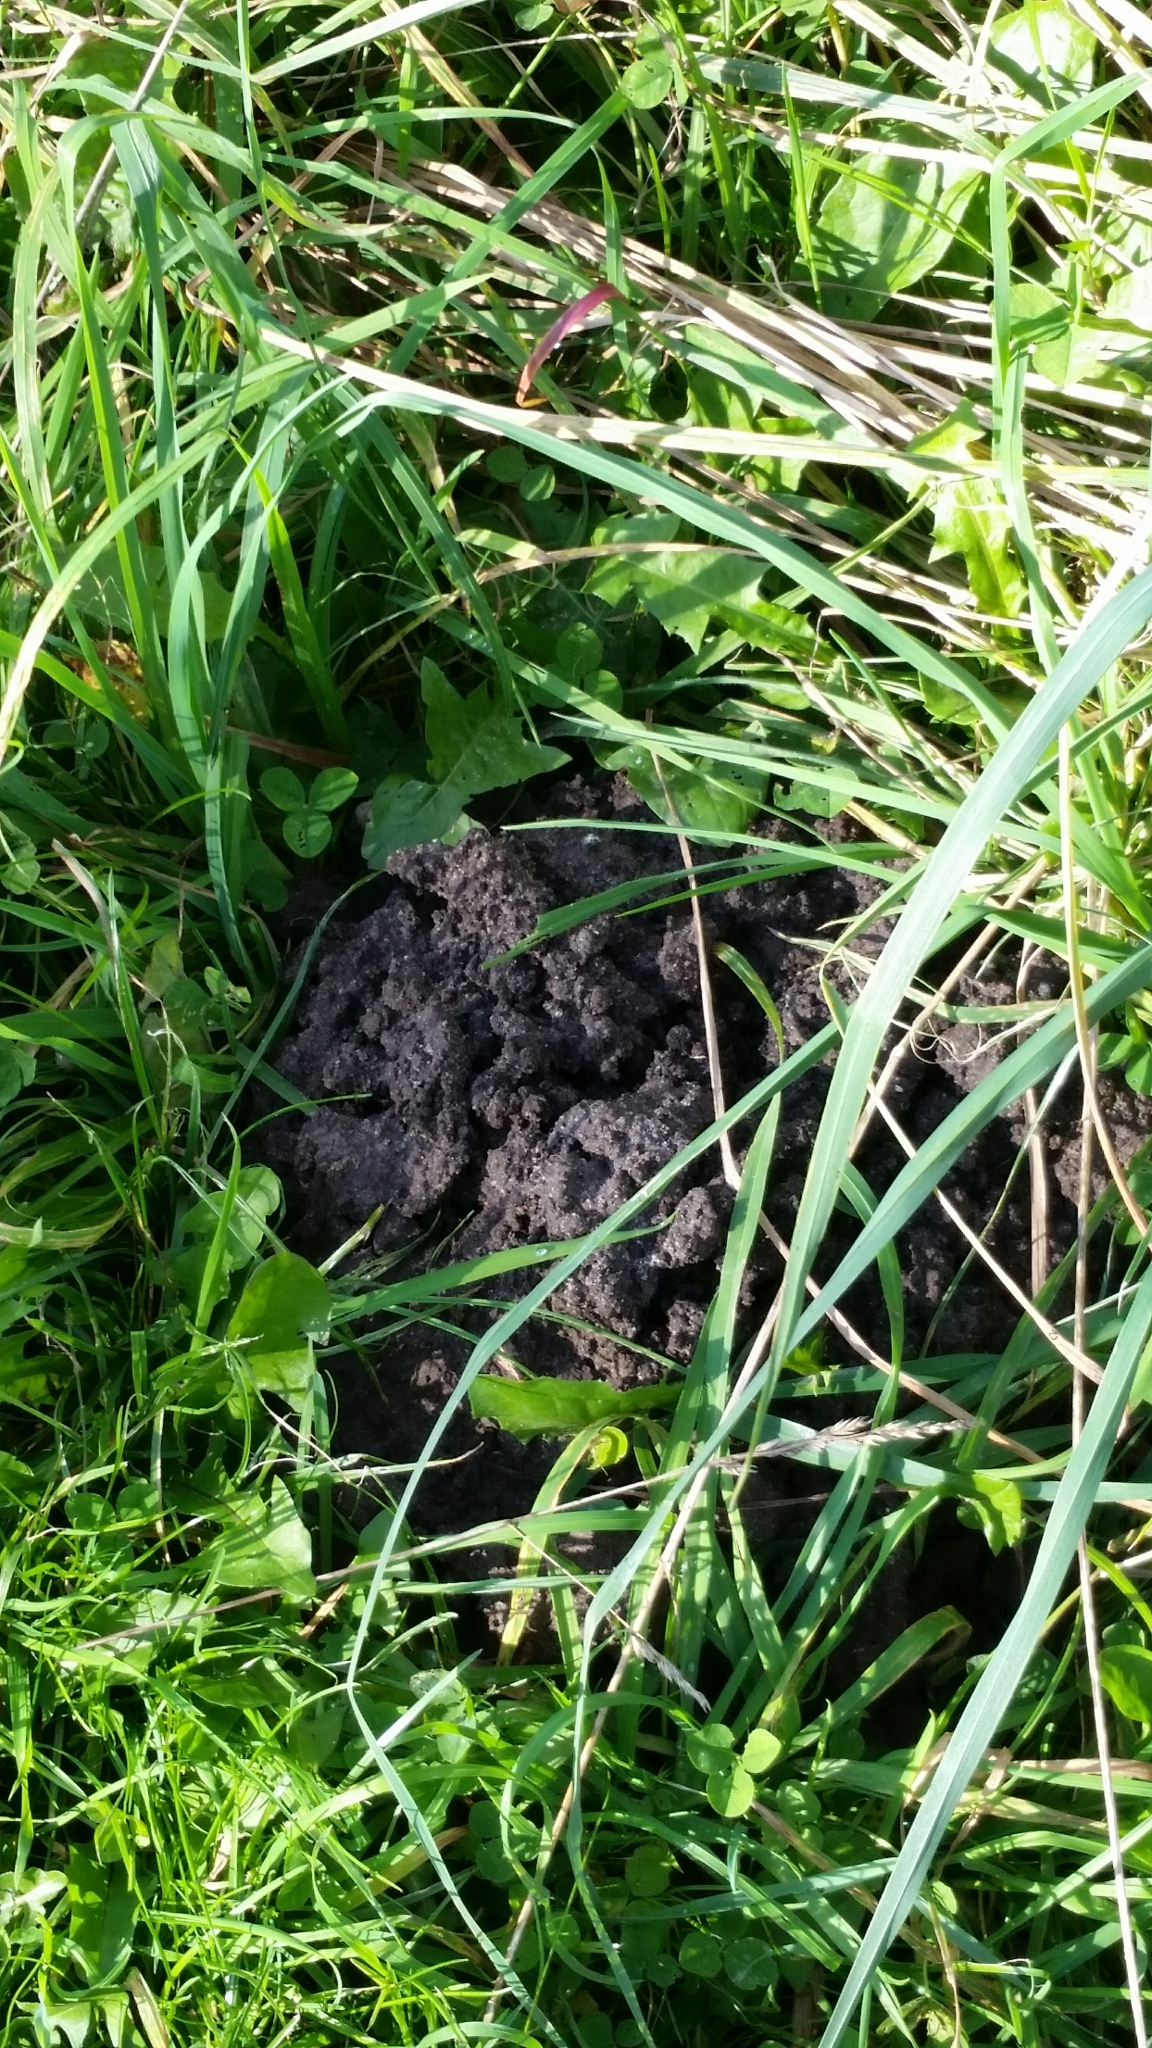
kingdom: Animalia
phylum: Chordata
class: Mammalia
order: Soricomorpha
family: Talpidae
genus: Talpa
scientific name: Talpa europaea
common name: European mole
